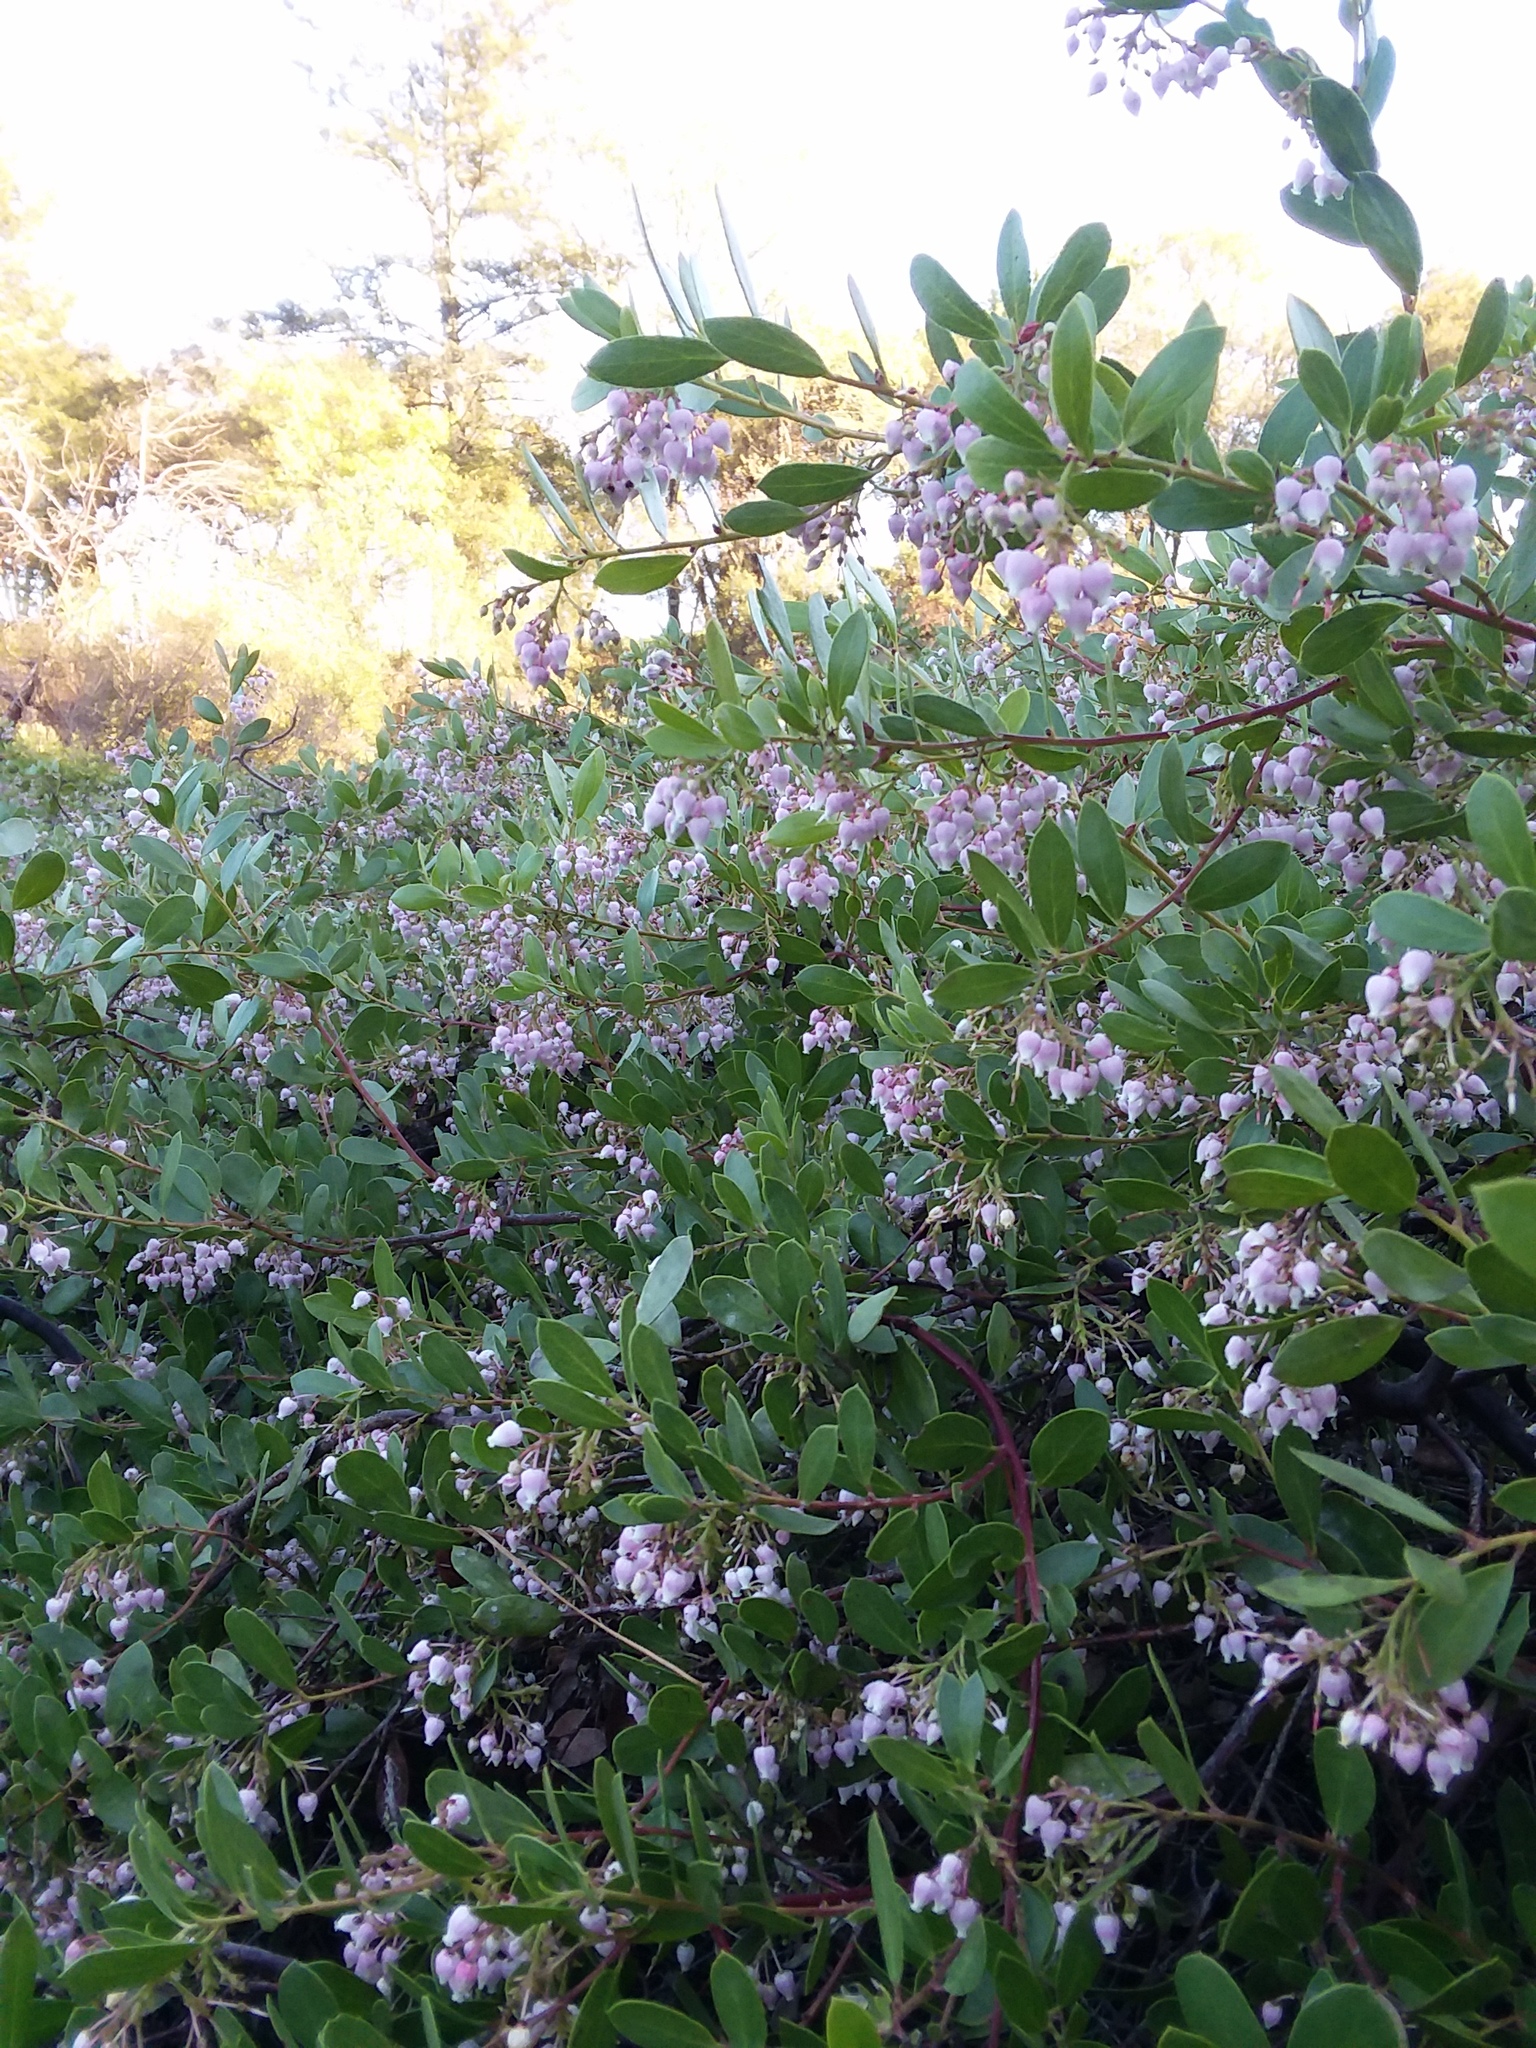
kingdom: Plantae
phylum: Tracheophyta
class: Magnoliopsida
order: Ericales
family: Ericaceae
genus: Arctostaphylos
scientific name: Arctostaphylos densiflora
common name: Vine hill manzanita
